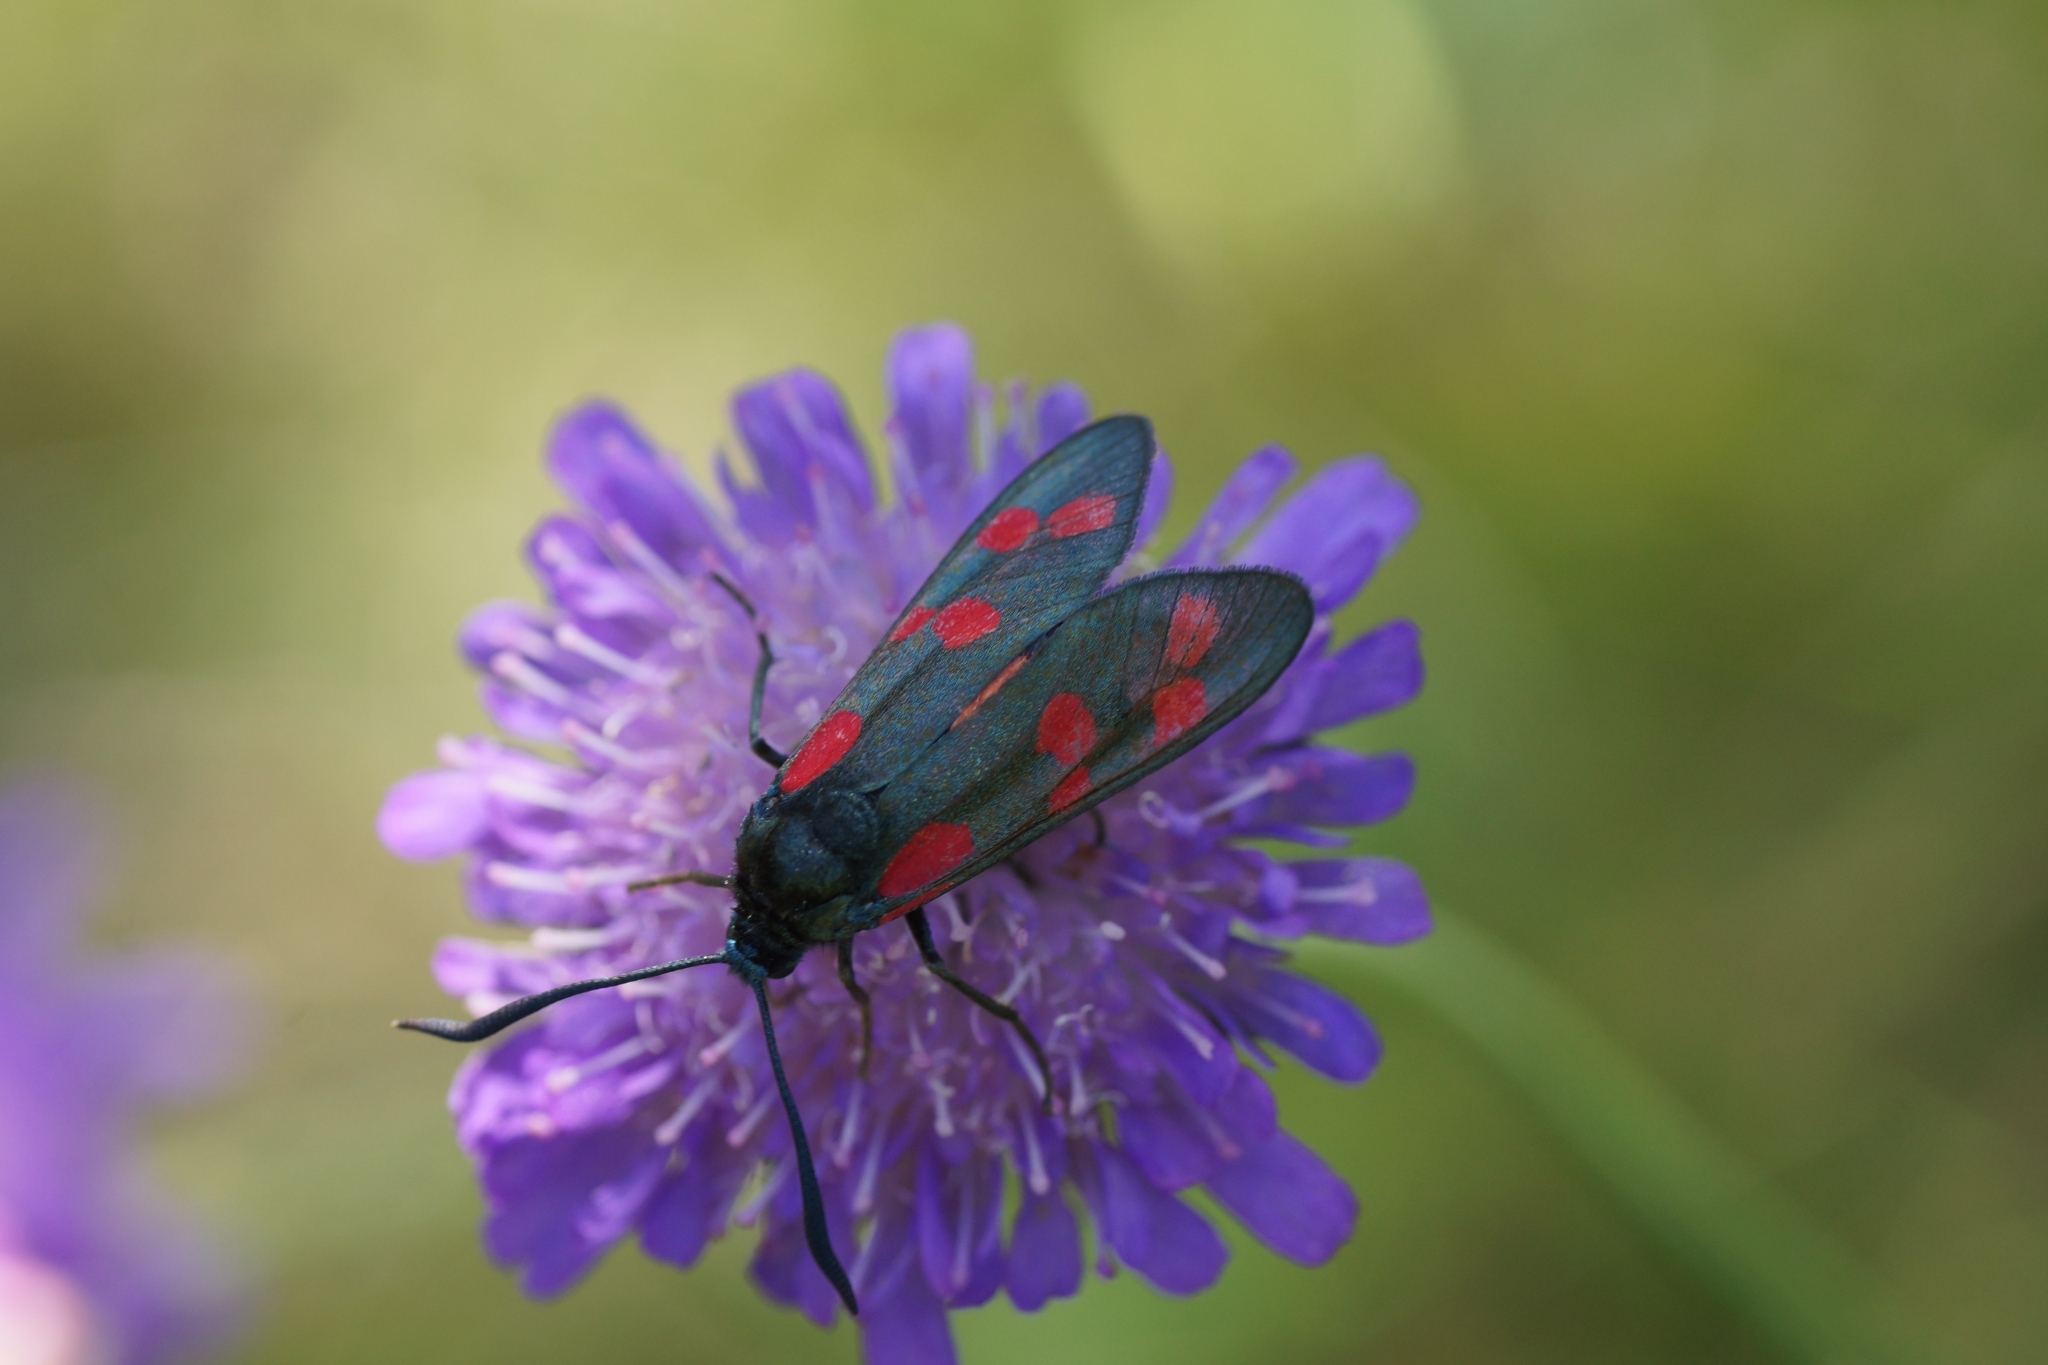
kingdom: Animalia
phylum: Arthropoda
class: Insecta
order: Lepidoptera
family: Zygaenidae
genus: Zygaena
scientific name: Zygaena filipendulae
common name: Six-spot burnet
